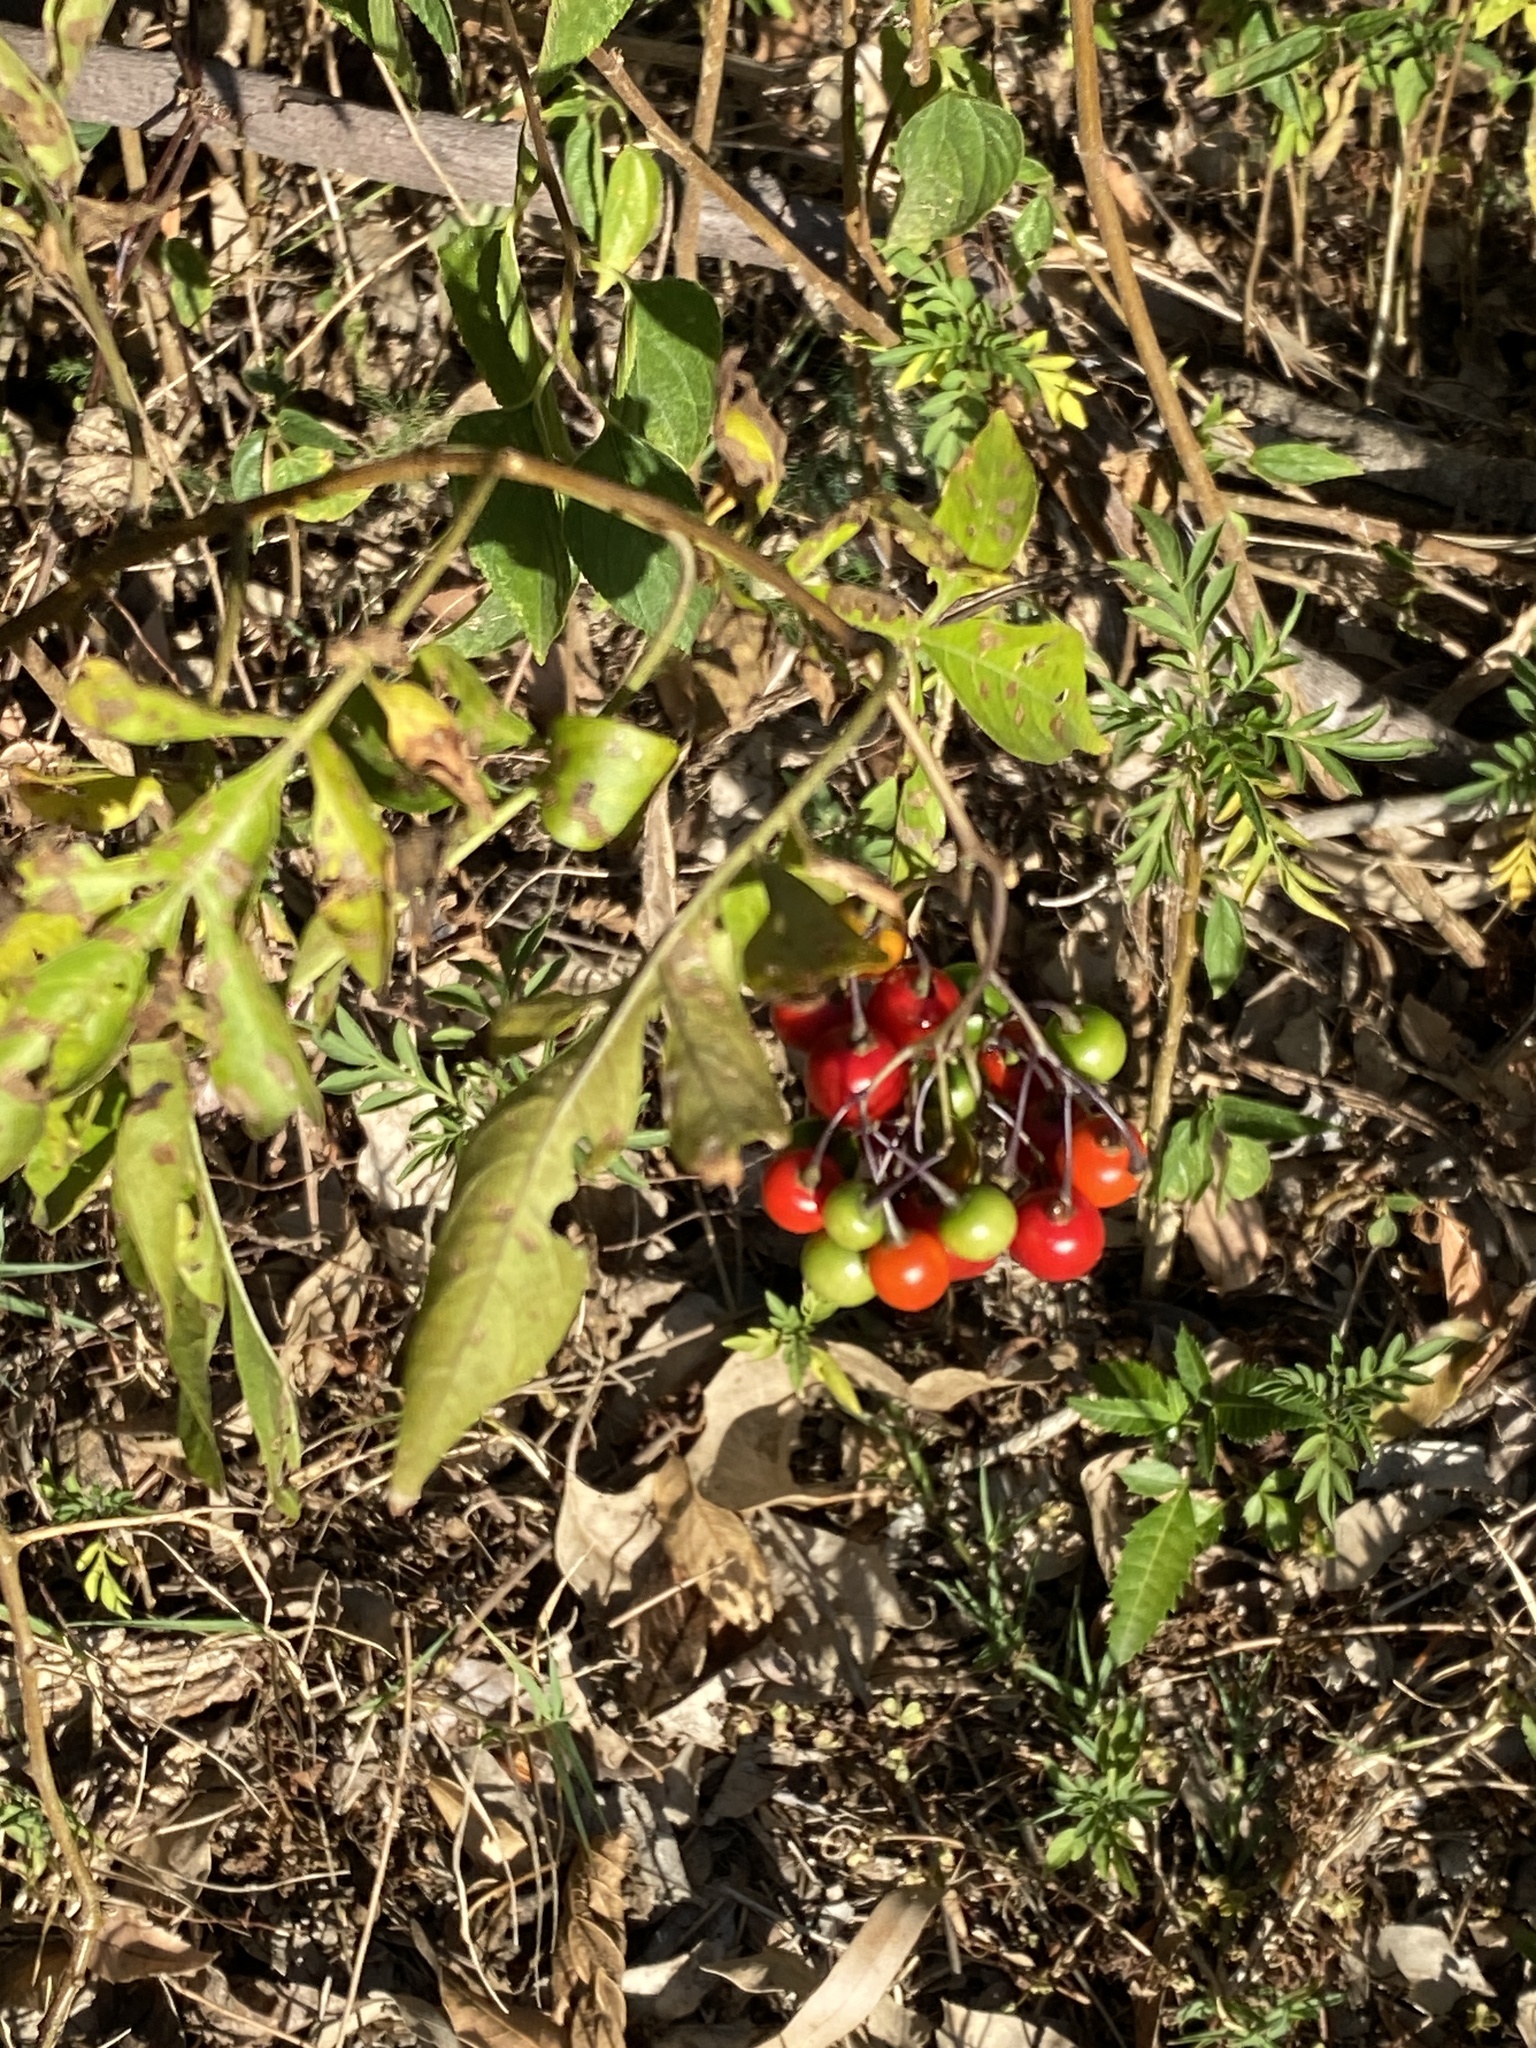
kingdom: Plantae
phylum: Tracheophyta
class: Magnoliopsida
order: Solanales
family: Solanaceae
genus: Solanum
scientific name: Solanum seaforthianum
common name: Brazilian nightshade
